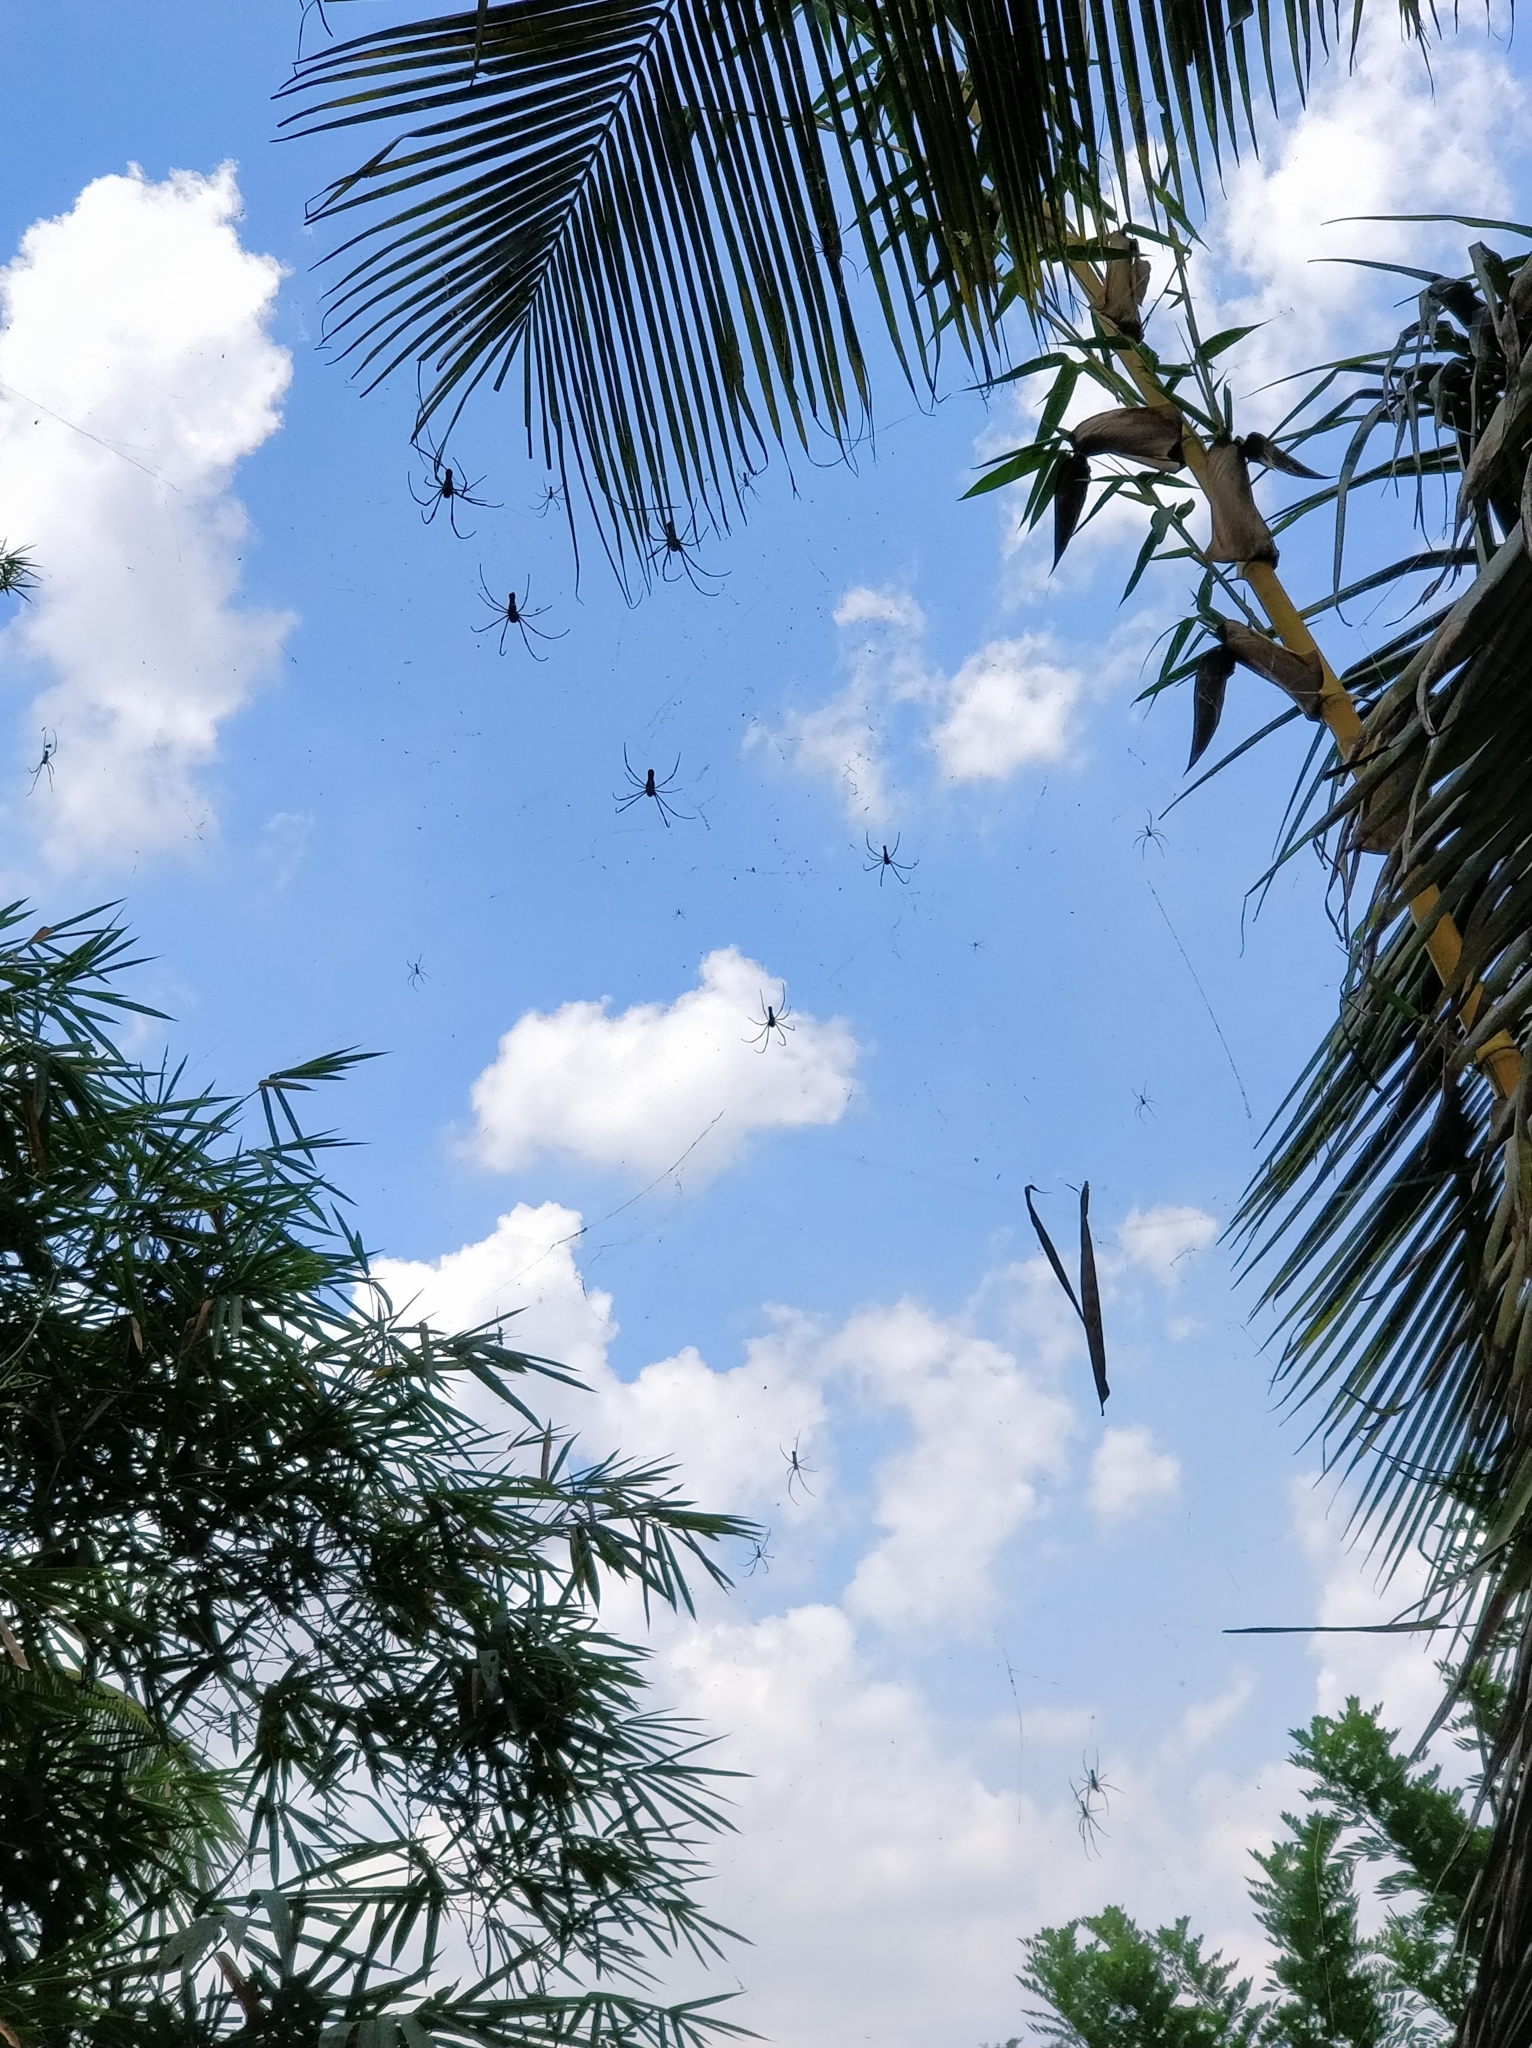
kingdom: Animalia
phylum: Arthropoda
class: Arachnida
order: Araneae
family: Araneidae
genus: Nephila
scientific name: Nephila pilipes
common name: Giant golden orb weaver
